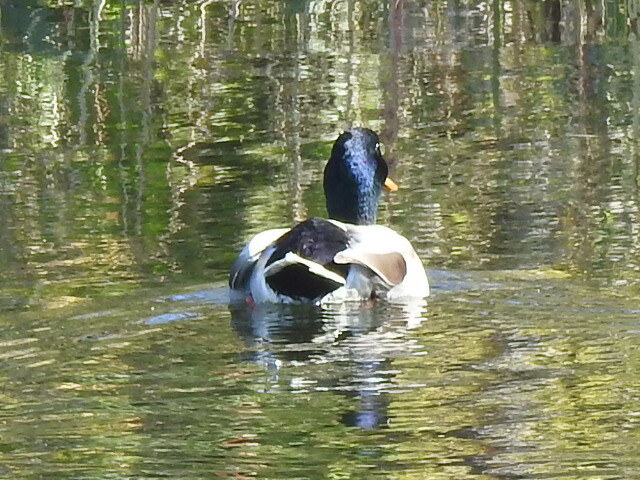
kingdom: Animalia
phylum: Chordata
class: Aves
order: Anseriformes
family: Anatidae
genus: Anas
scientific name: Anas platyrhynchos
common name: Mallard
